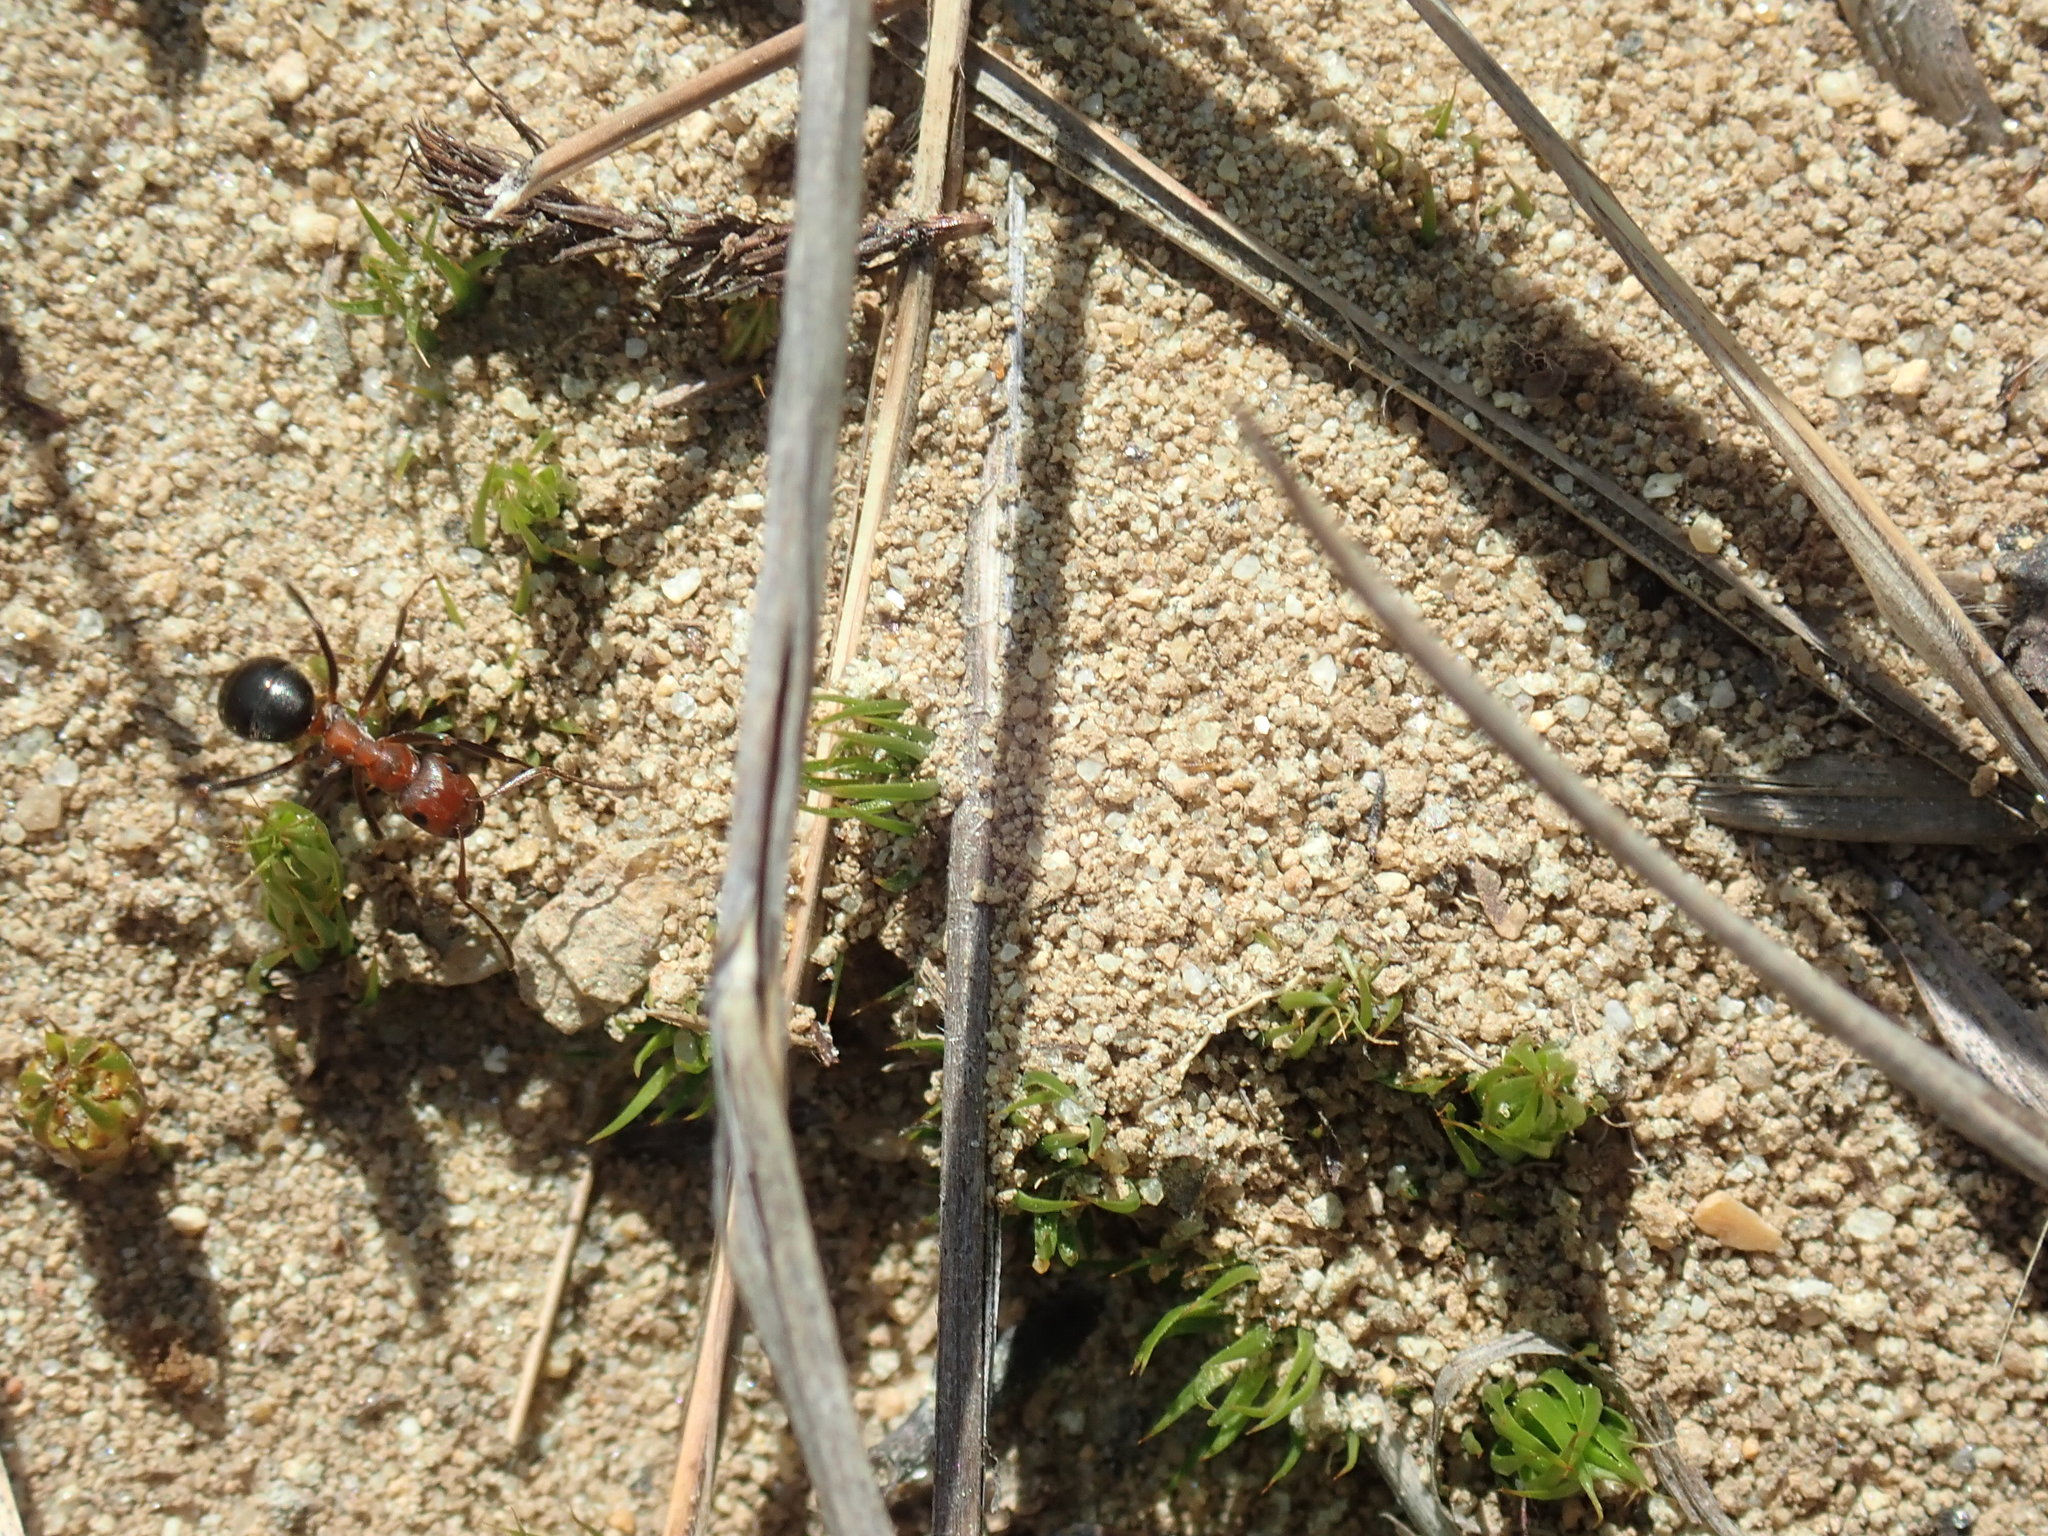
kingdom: Animalia
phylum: Arthropoda
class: Insecta
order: Hymenoptera
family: Formicidae
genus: Formica
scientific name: Formica exsectoides
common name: Allegheny mound ant
